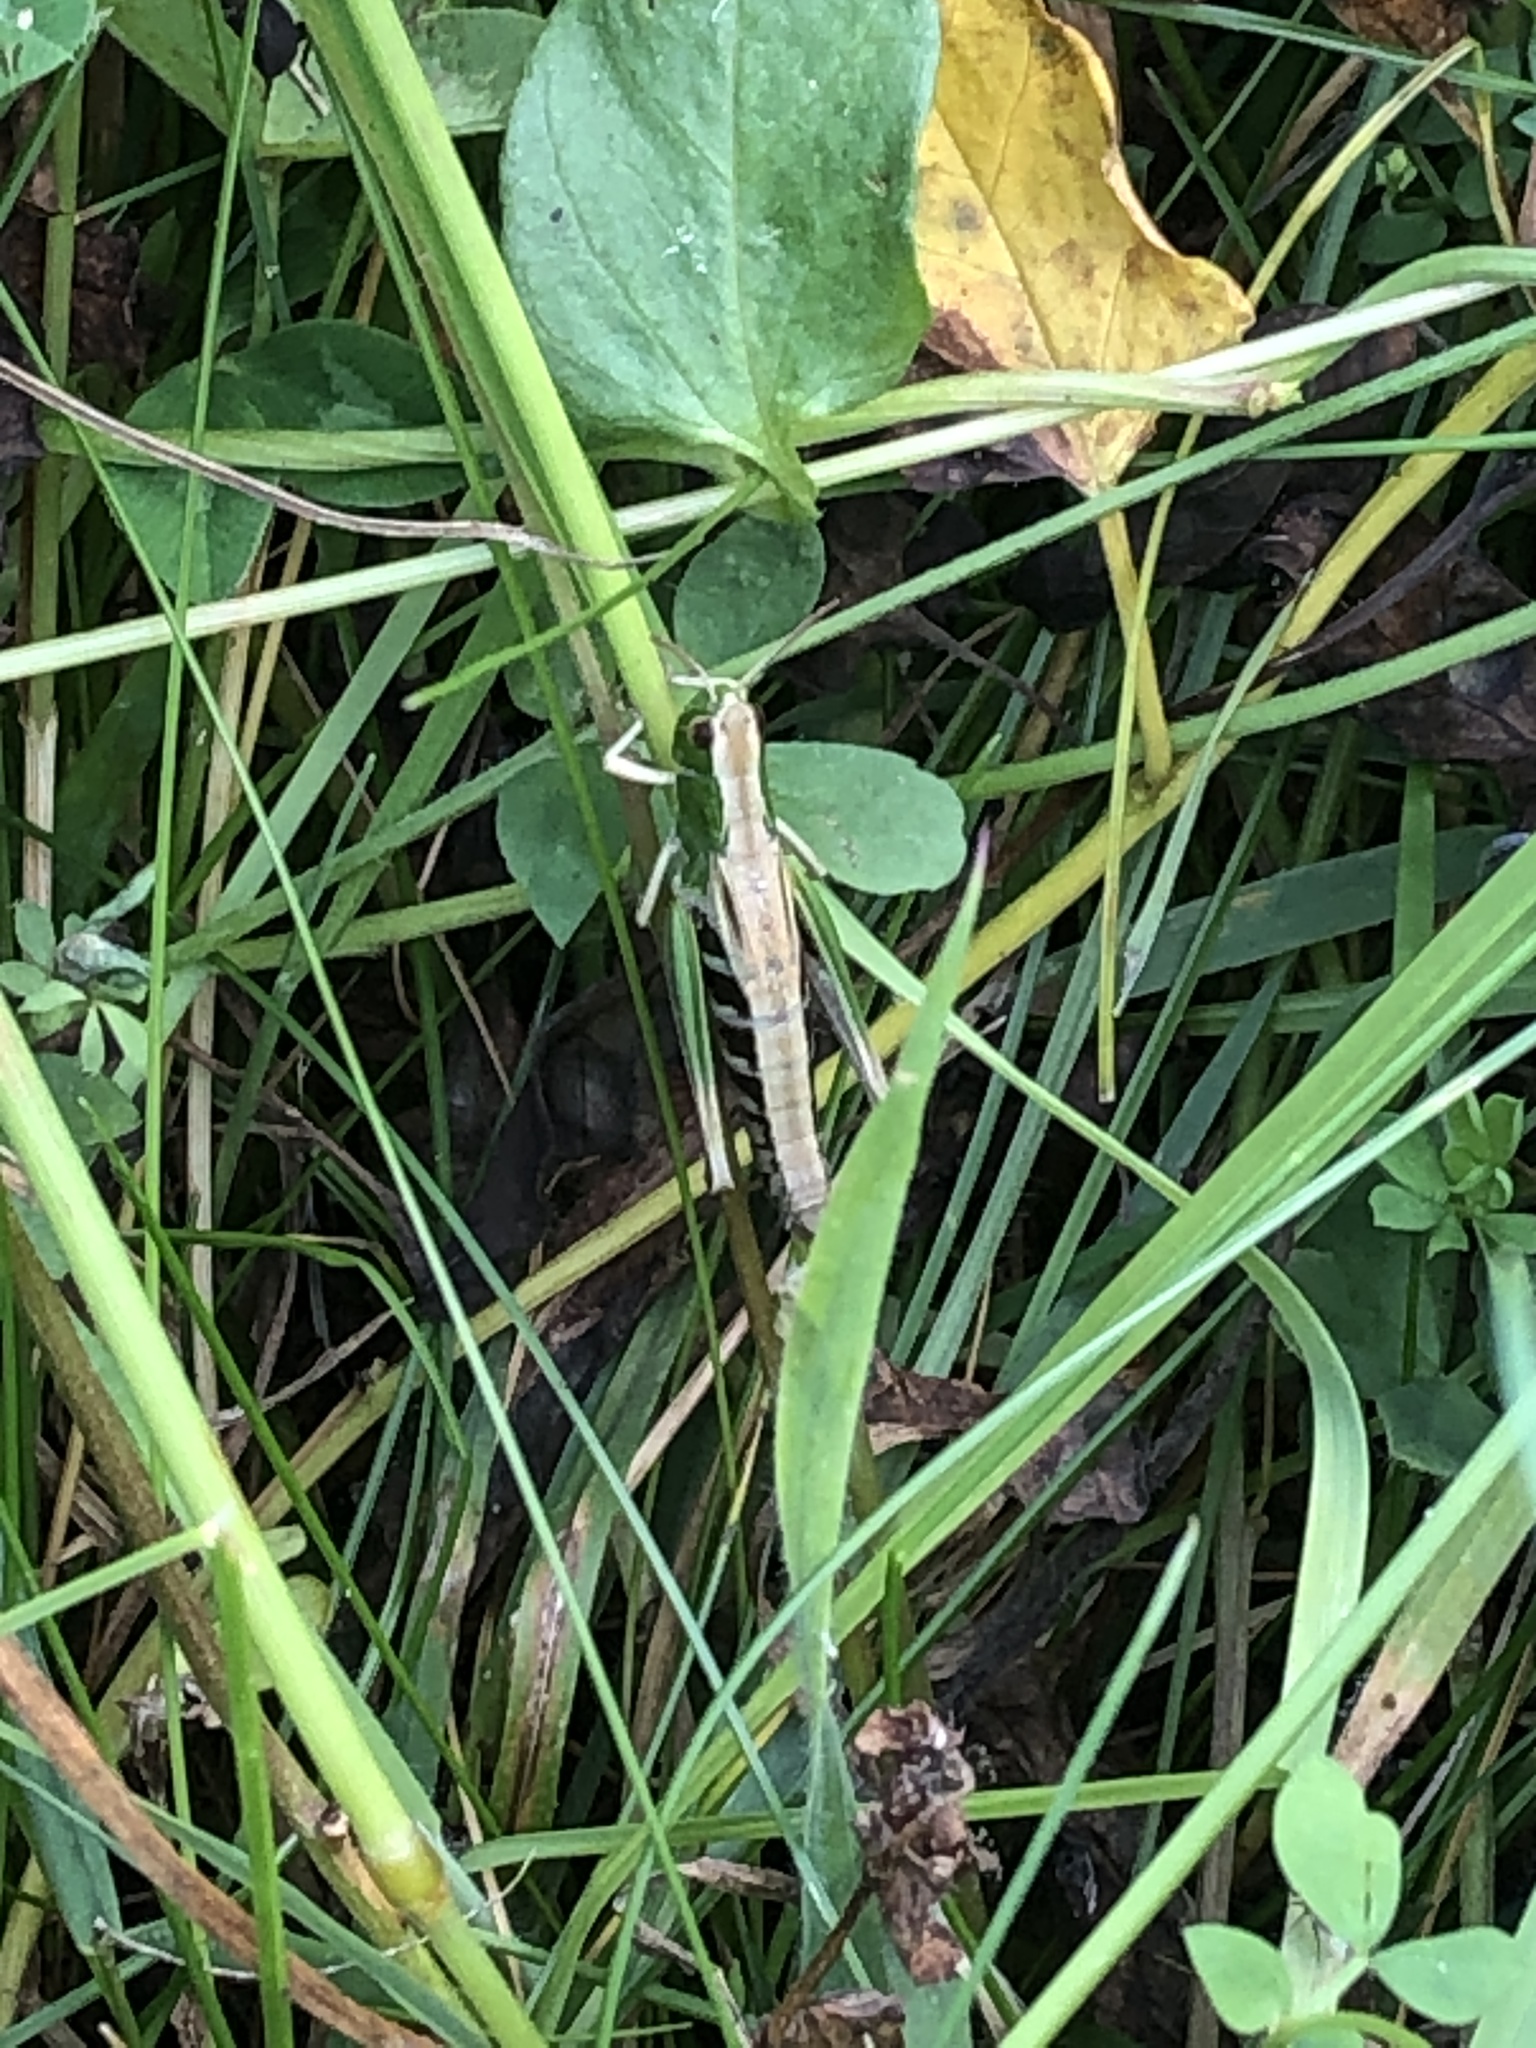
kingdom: Animalia
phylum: Arthropoda
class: Insecta
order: Orthoptera
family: Acrididae
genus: Pseudochorthippus
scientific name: Pseudochorthippus parallelus
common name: Meadow grasshopper
